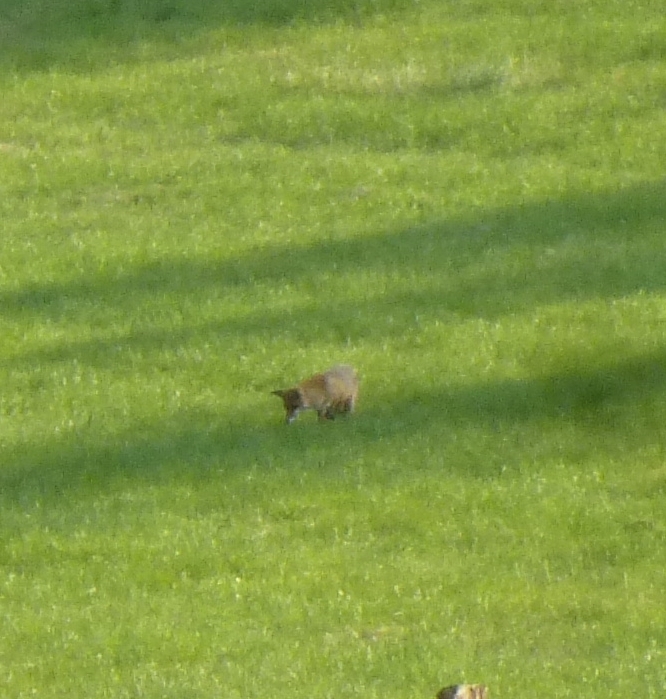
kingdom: Animalia
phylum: Chordata
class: Mammalia
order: Carnivora
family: Canidae
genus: Vulpes
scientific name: Vulpes vulpes
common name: Red fox
